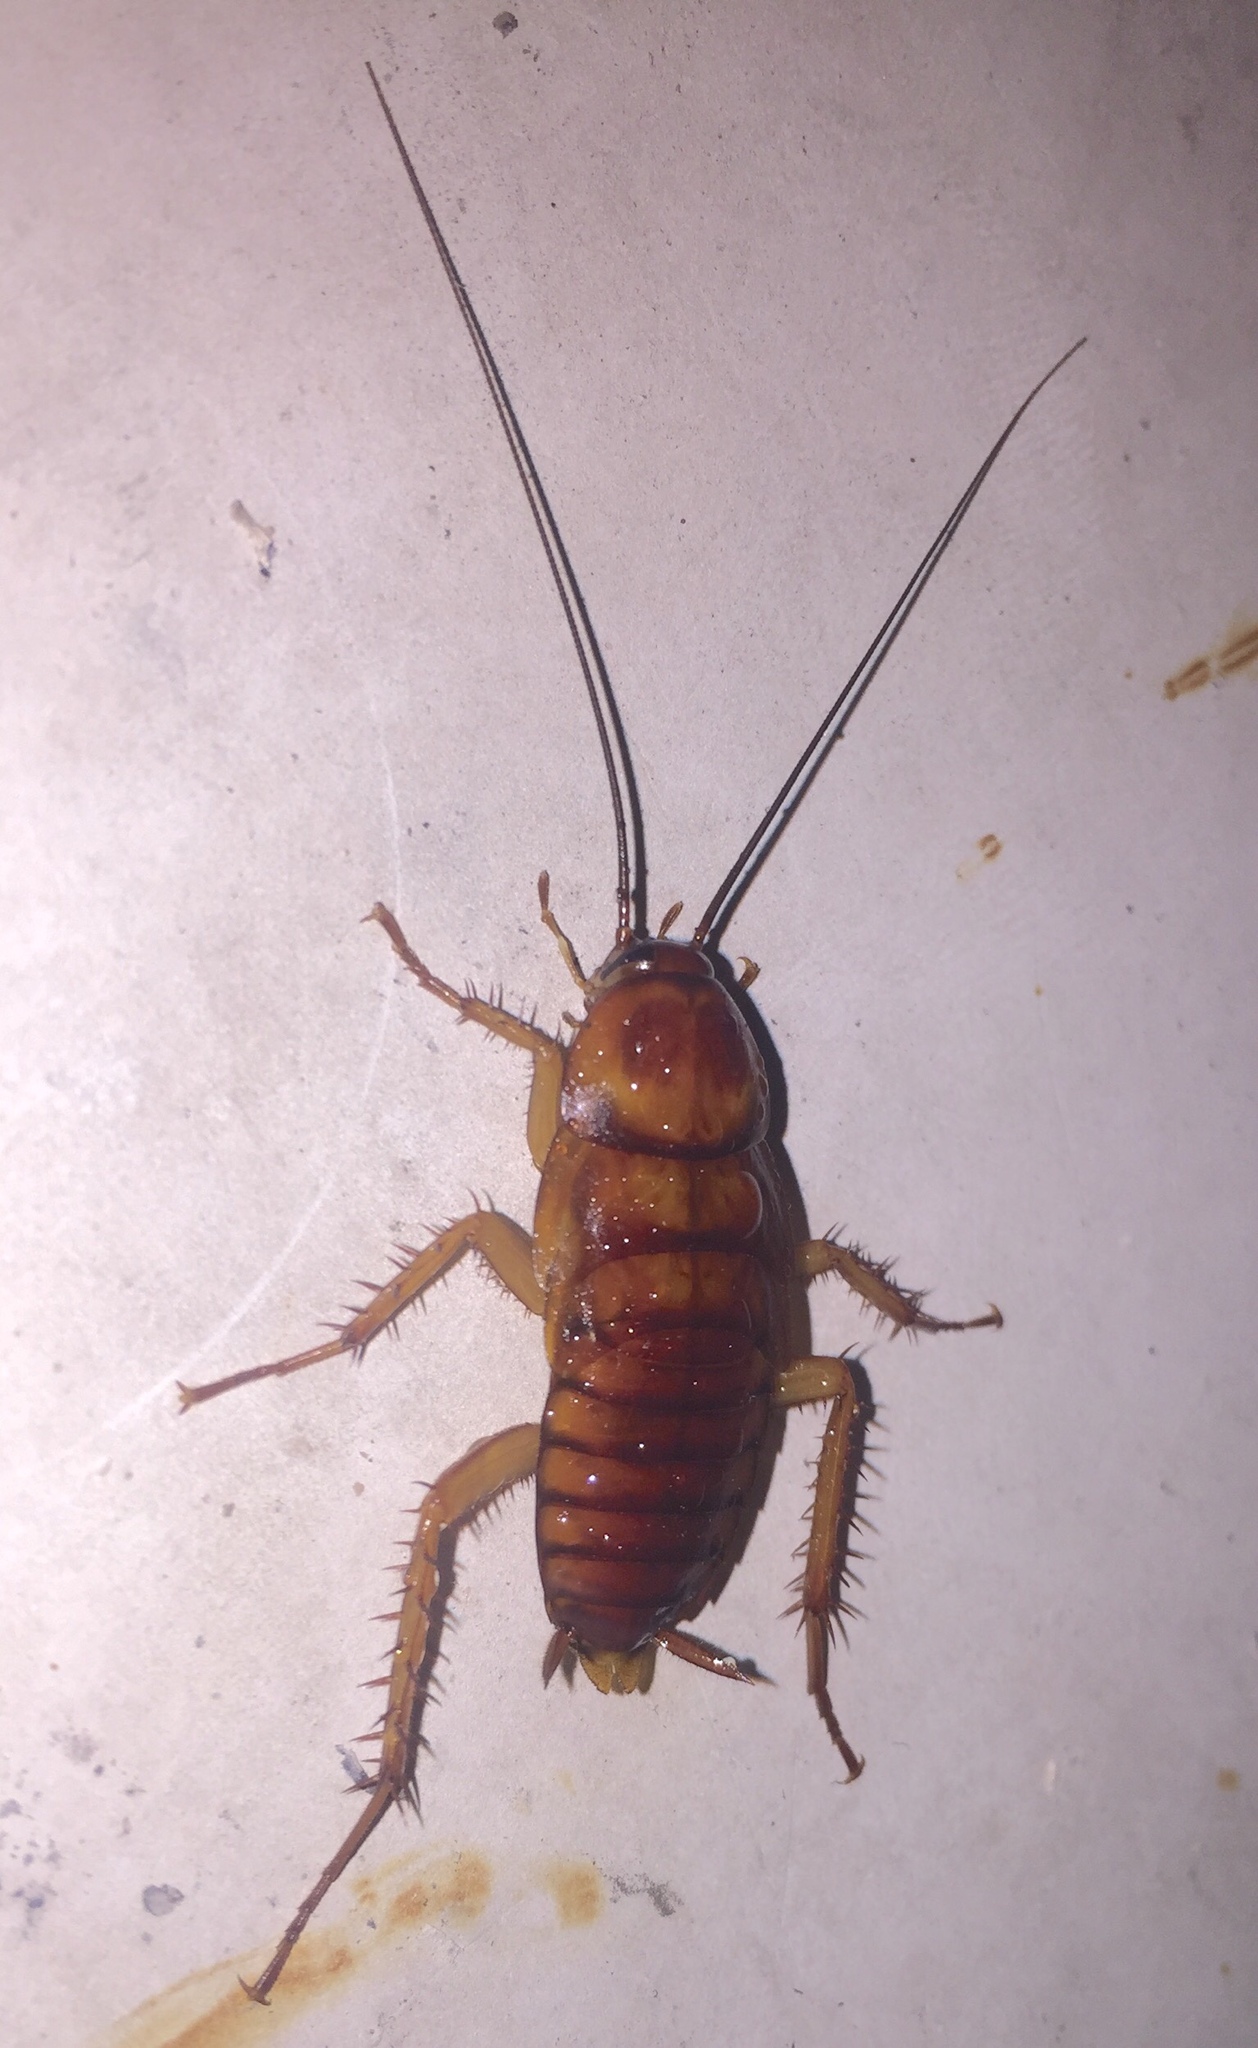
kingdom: Animalia
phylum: Arthropoda
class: Insecta
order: Blattodea
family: Blattidae
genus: Periplaneta
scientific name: Periplaneta americana
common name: American cockroach
